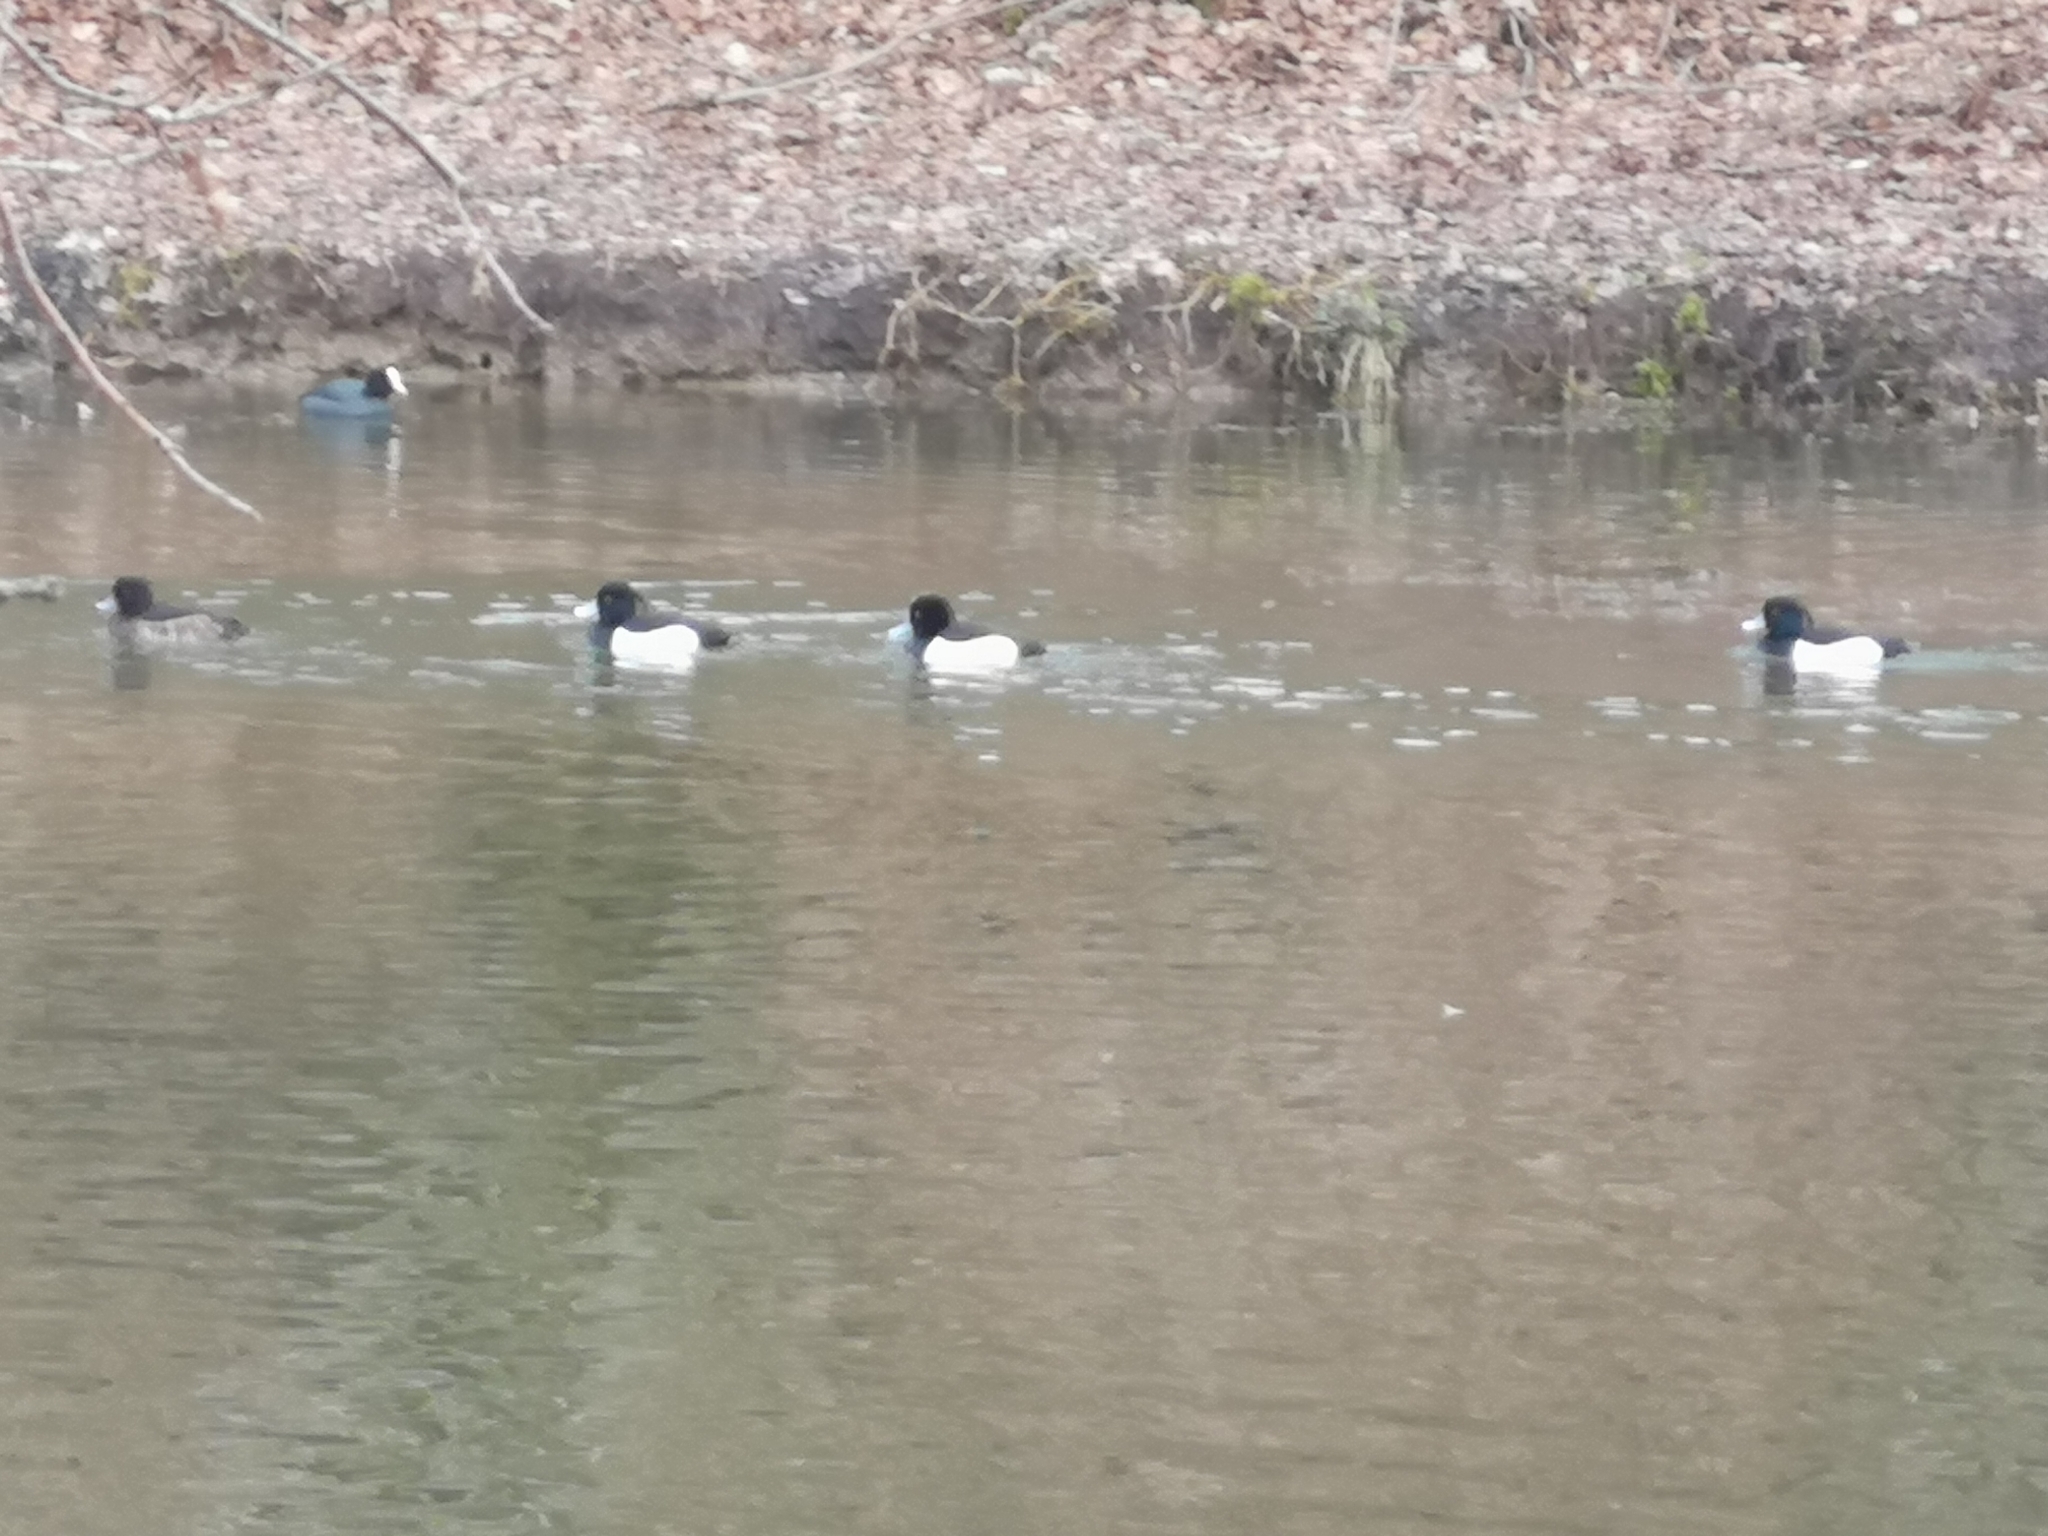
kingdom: Animalia
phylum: Chordata
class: Aves
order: Anseriformes
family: Anatidae
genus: Aythya
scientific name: Aythya fuligula
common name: Tufted duck
